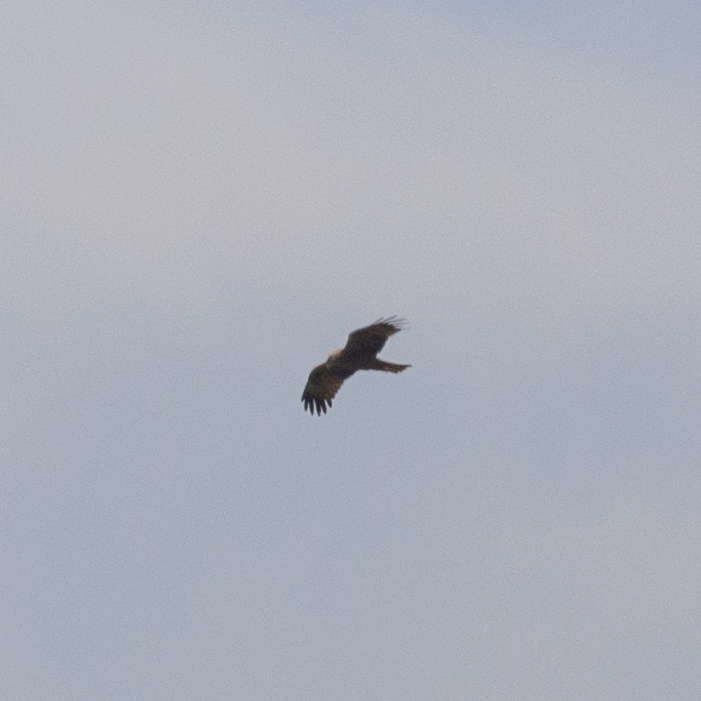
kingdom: Animalia
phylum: Chordata
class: Aves
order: Accipitriformes
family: Accipitridae
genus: Milvus
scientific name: Milvus migrans
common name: Black kite
